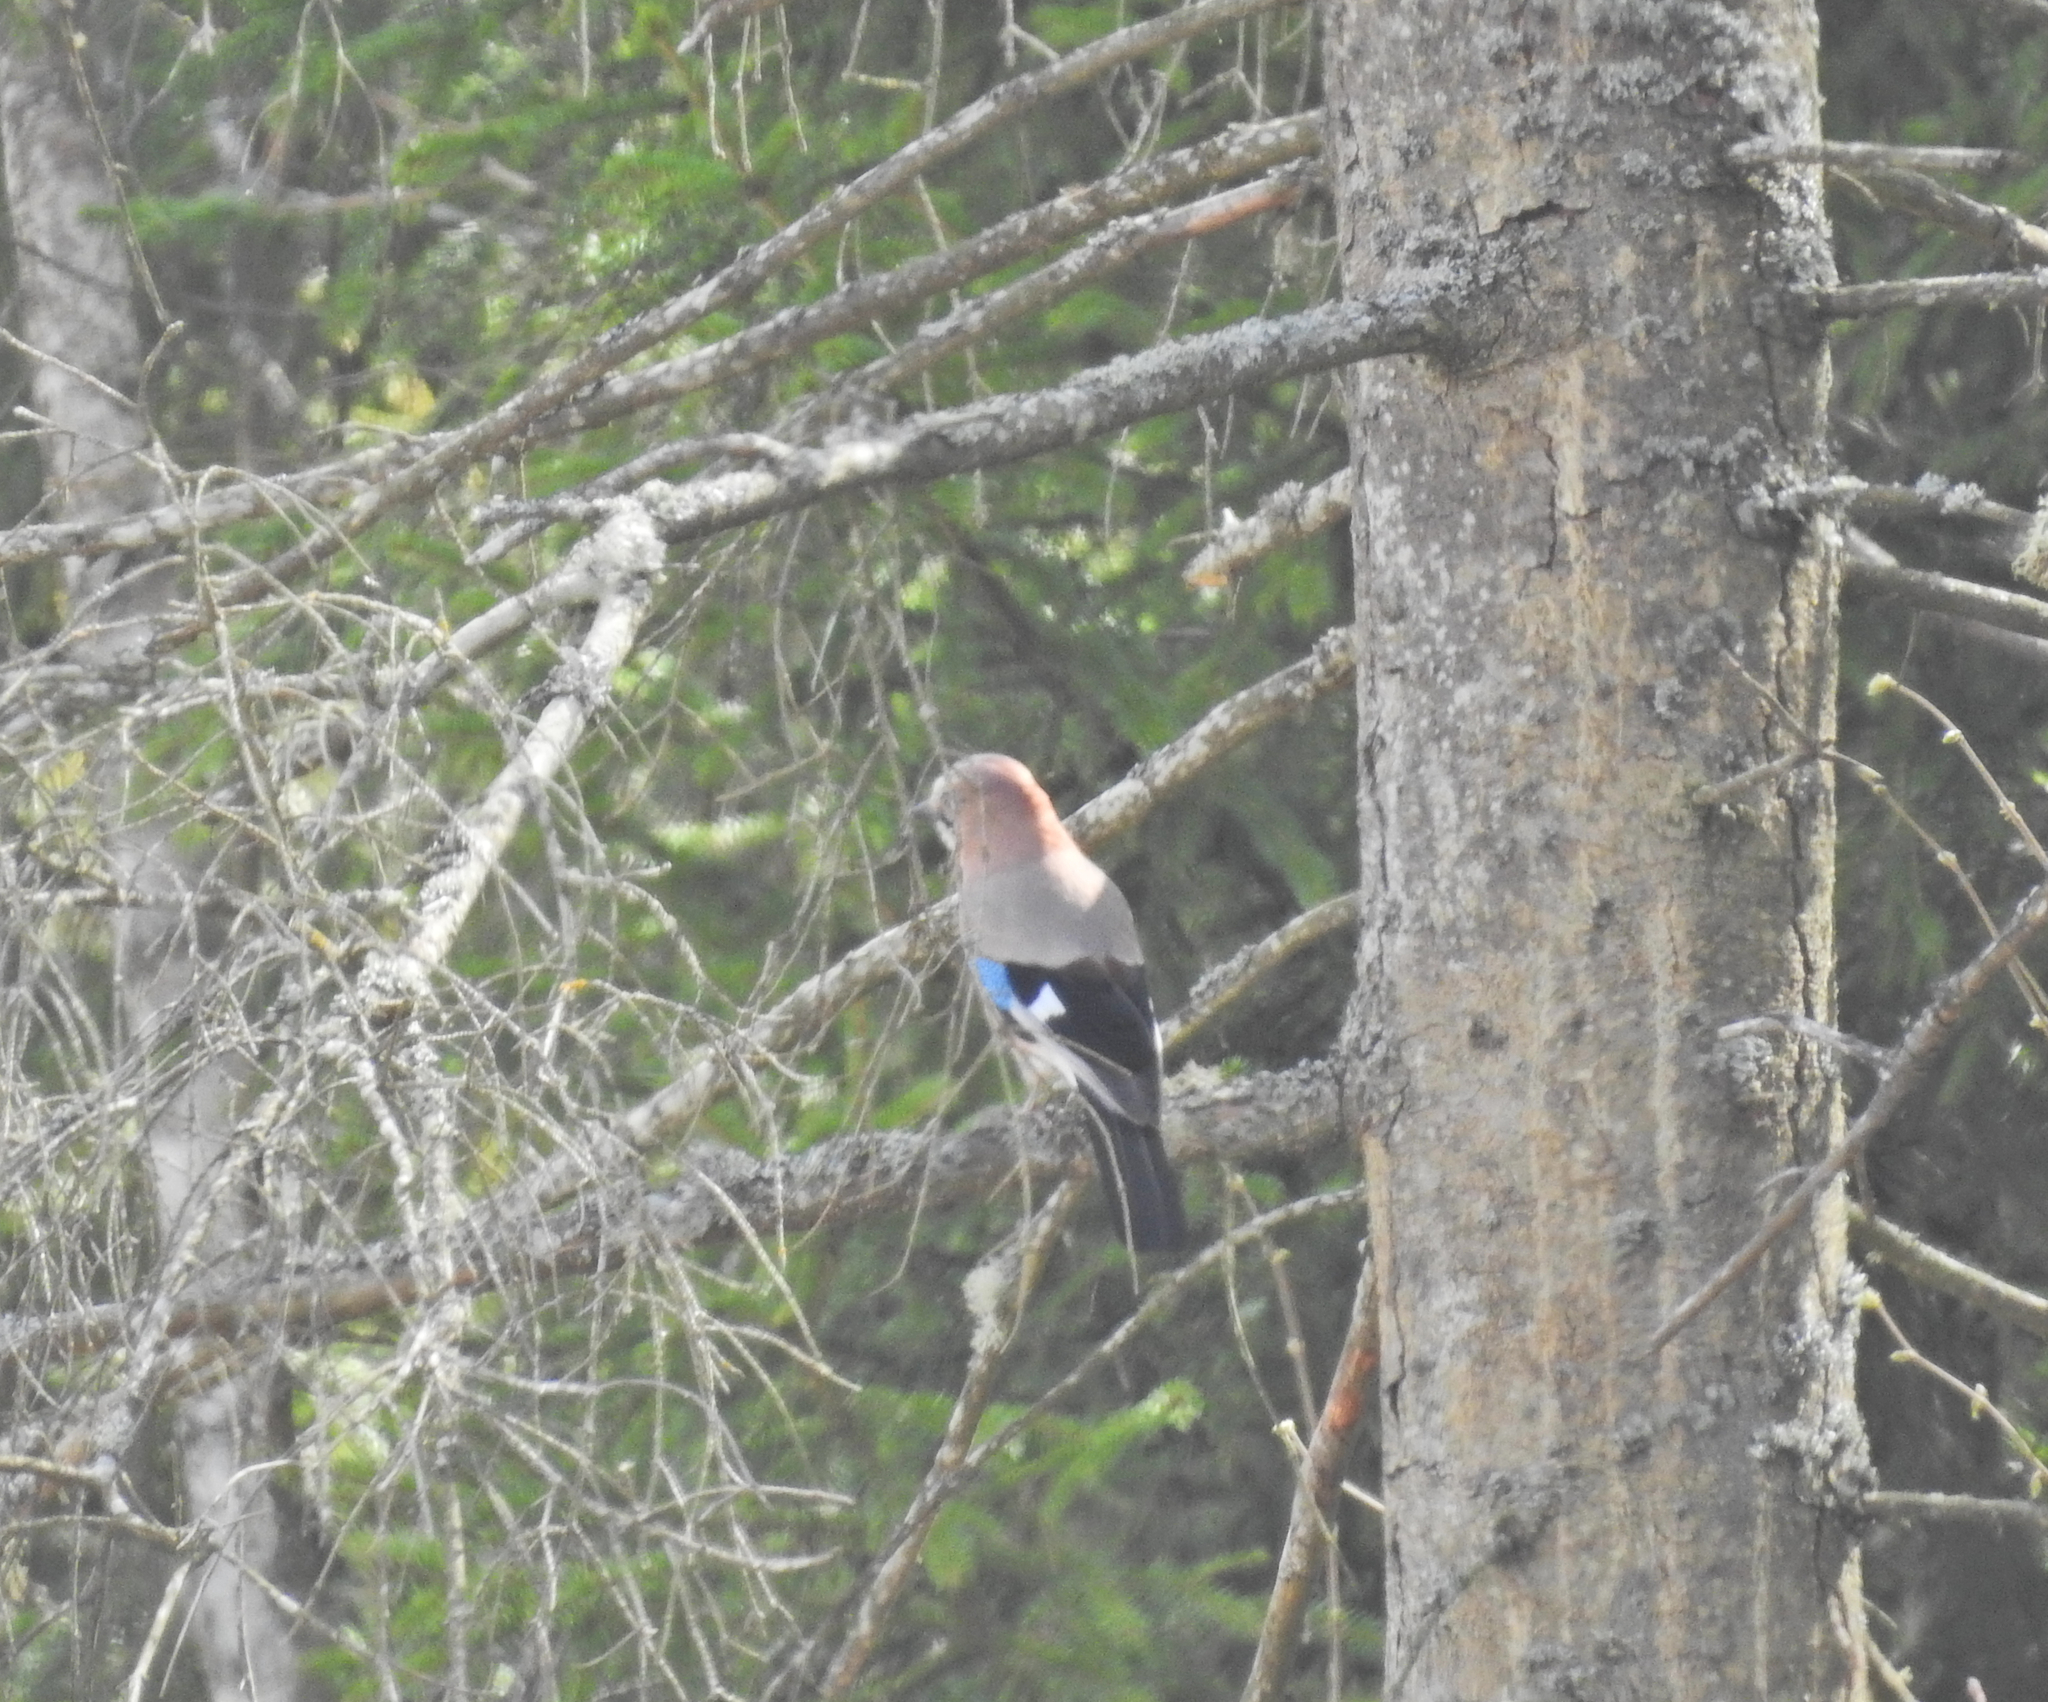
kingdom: Animalia
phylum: Chordata
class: Aves
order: Passeriformes
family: Corvidae
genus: Garrulus
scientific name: Garrulus glandarius
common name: Eurasian jay
